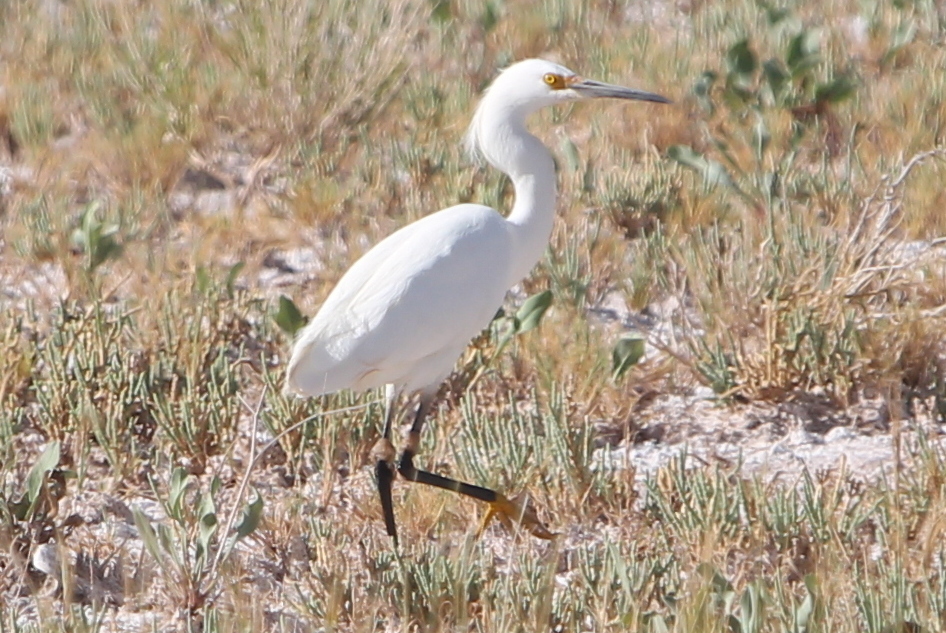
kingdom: Animalia
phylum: Chordata
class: Aves
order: Pelecaniformes
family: Ardeidae
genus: Egretta
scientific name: Egretta thula
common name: Snowy egret
